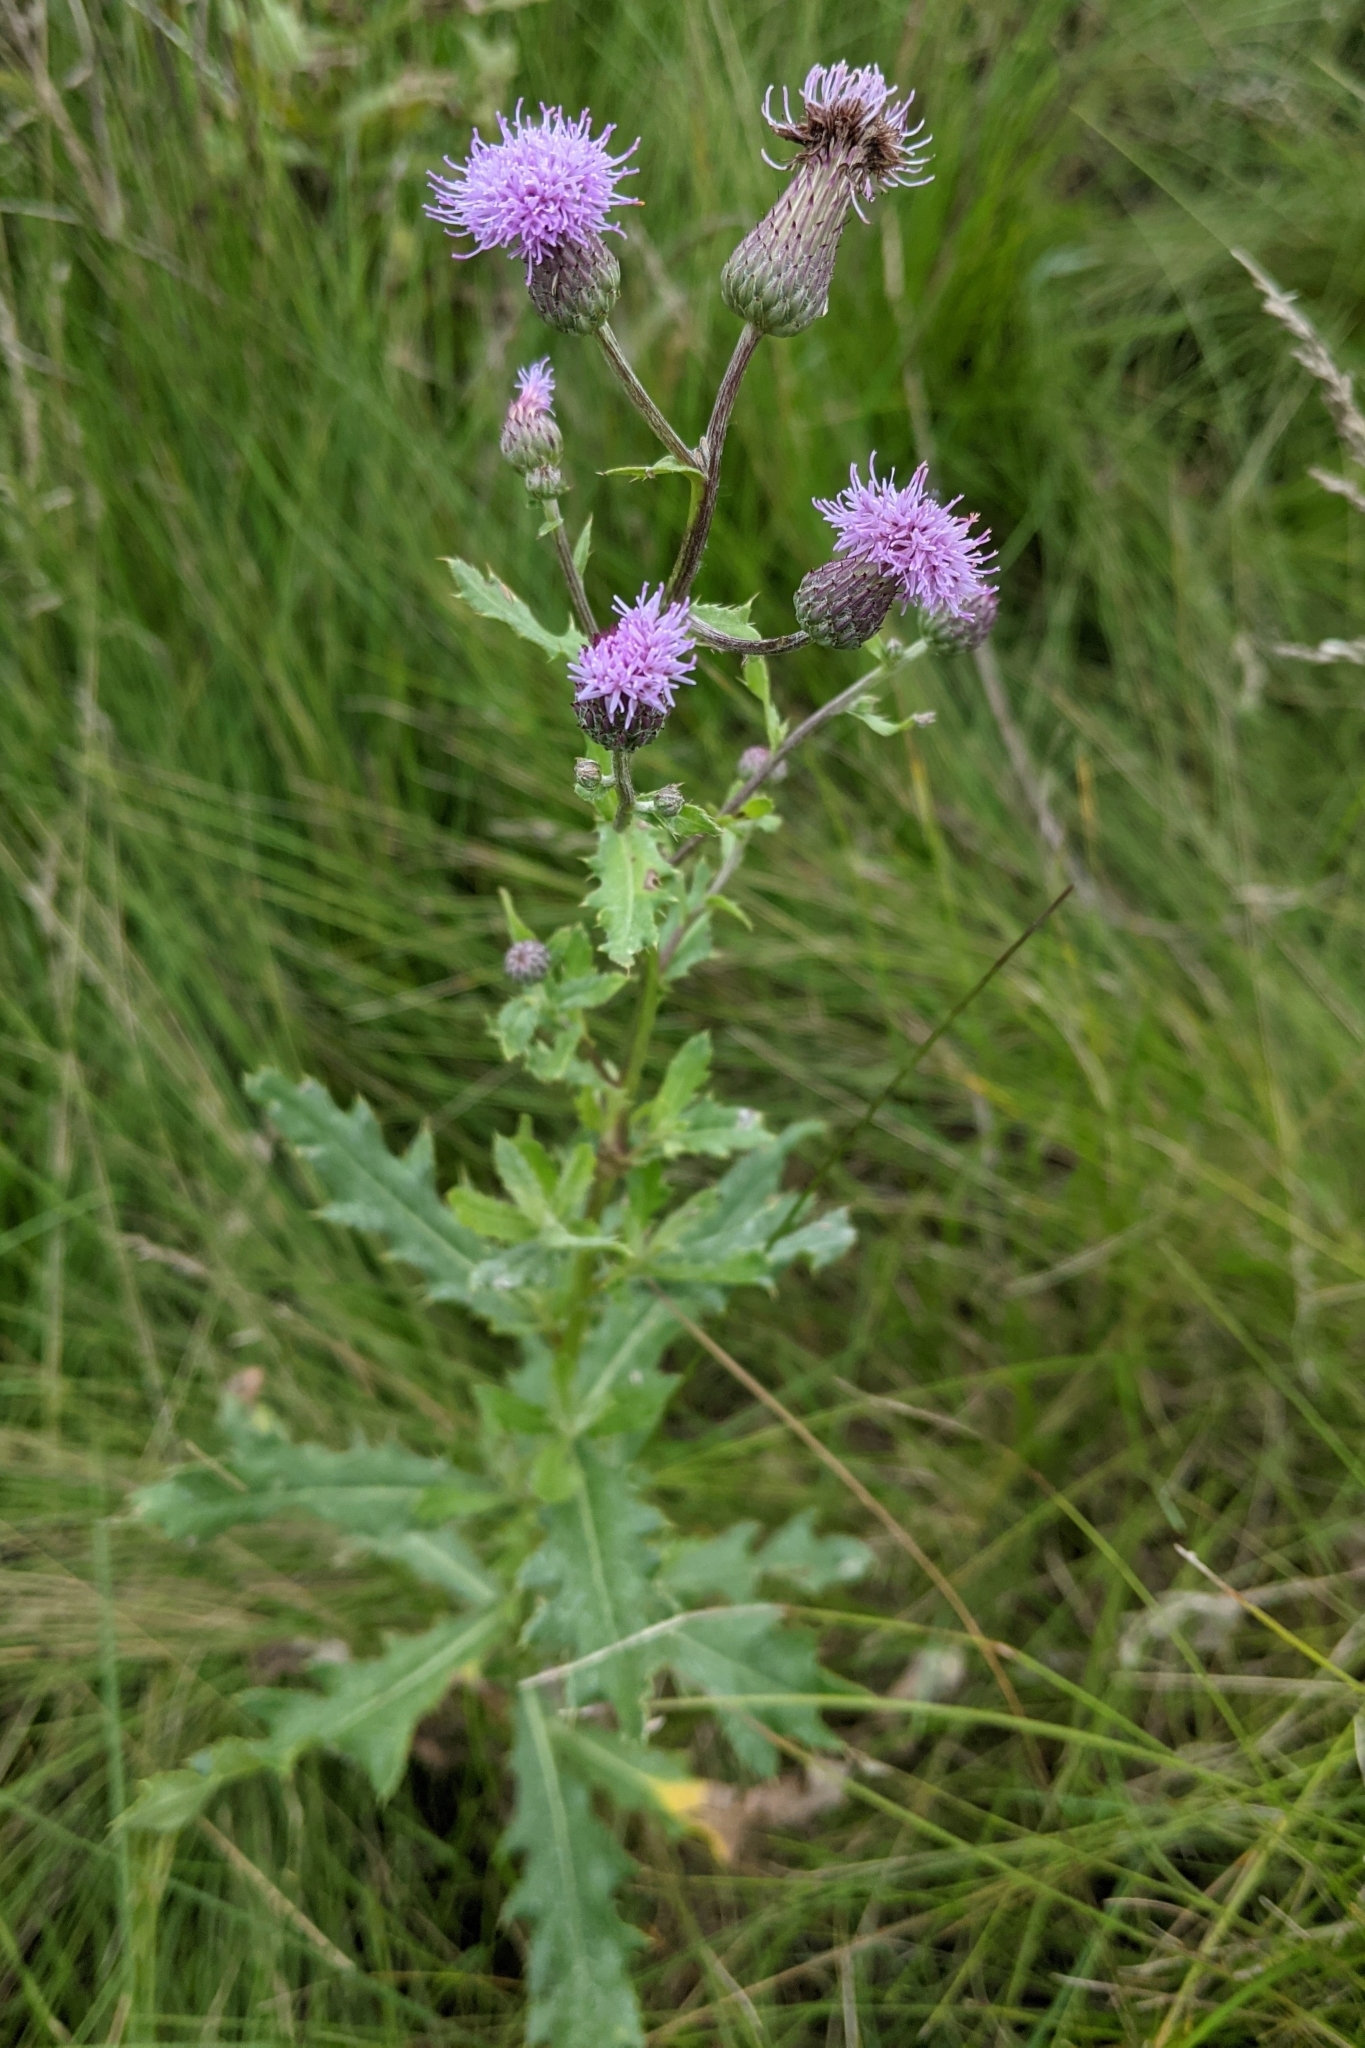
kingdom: Plantae
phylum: Tracheophyta
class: Magnoliopsida
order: Asterales
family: Asteraceae
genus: Cirsium
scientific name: Cirsium arvense
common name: Creeping thistle
